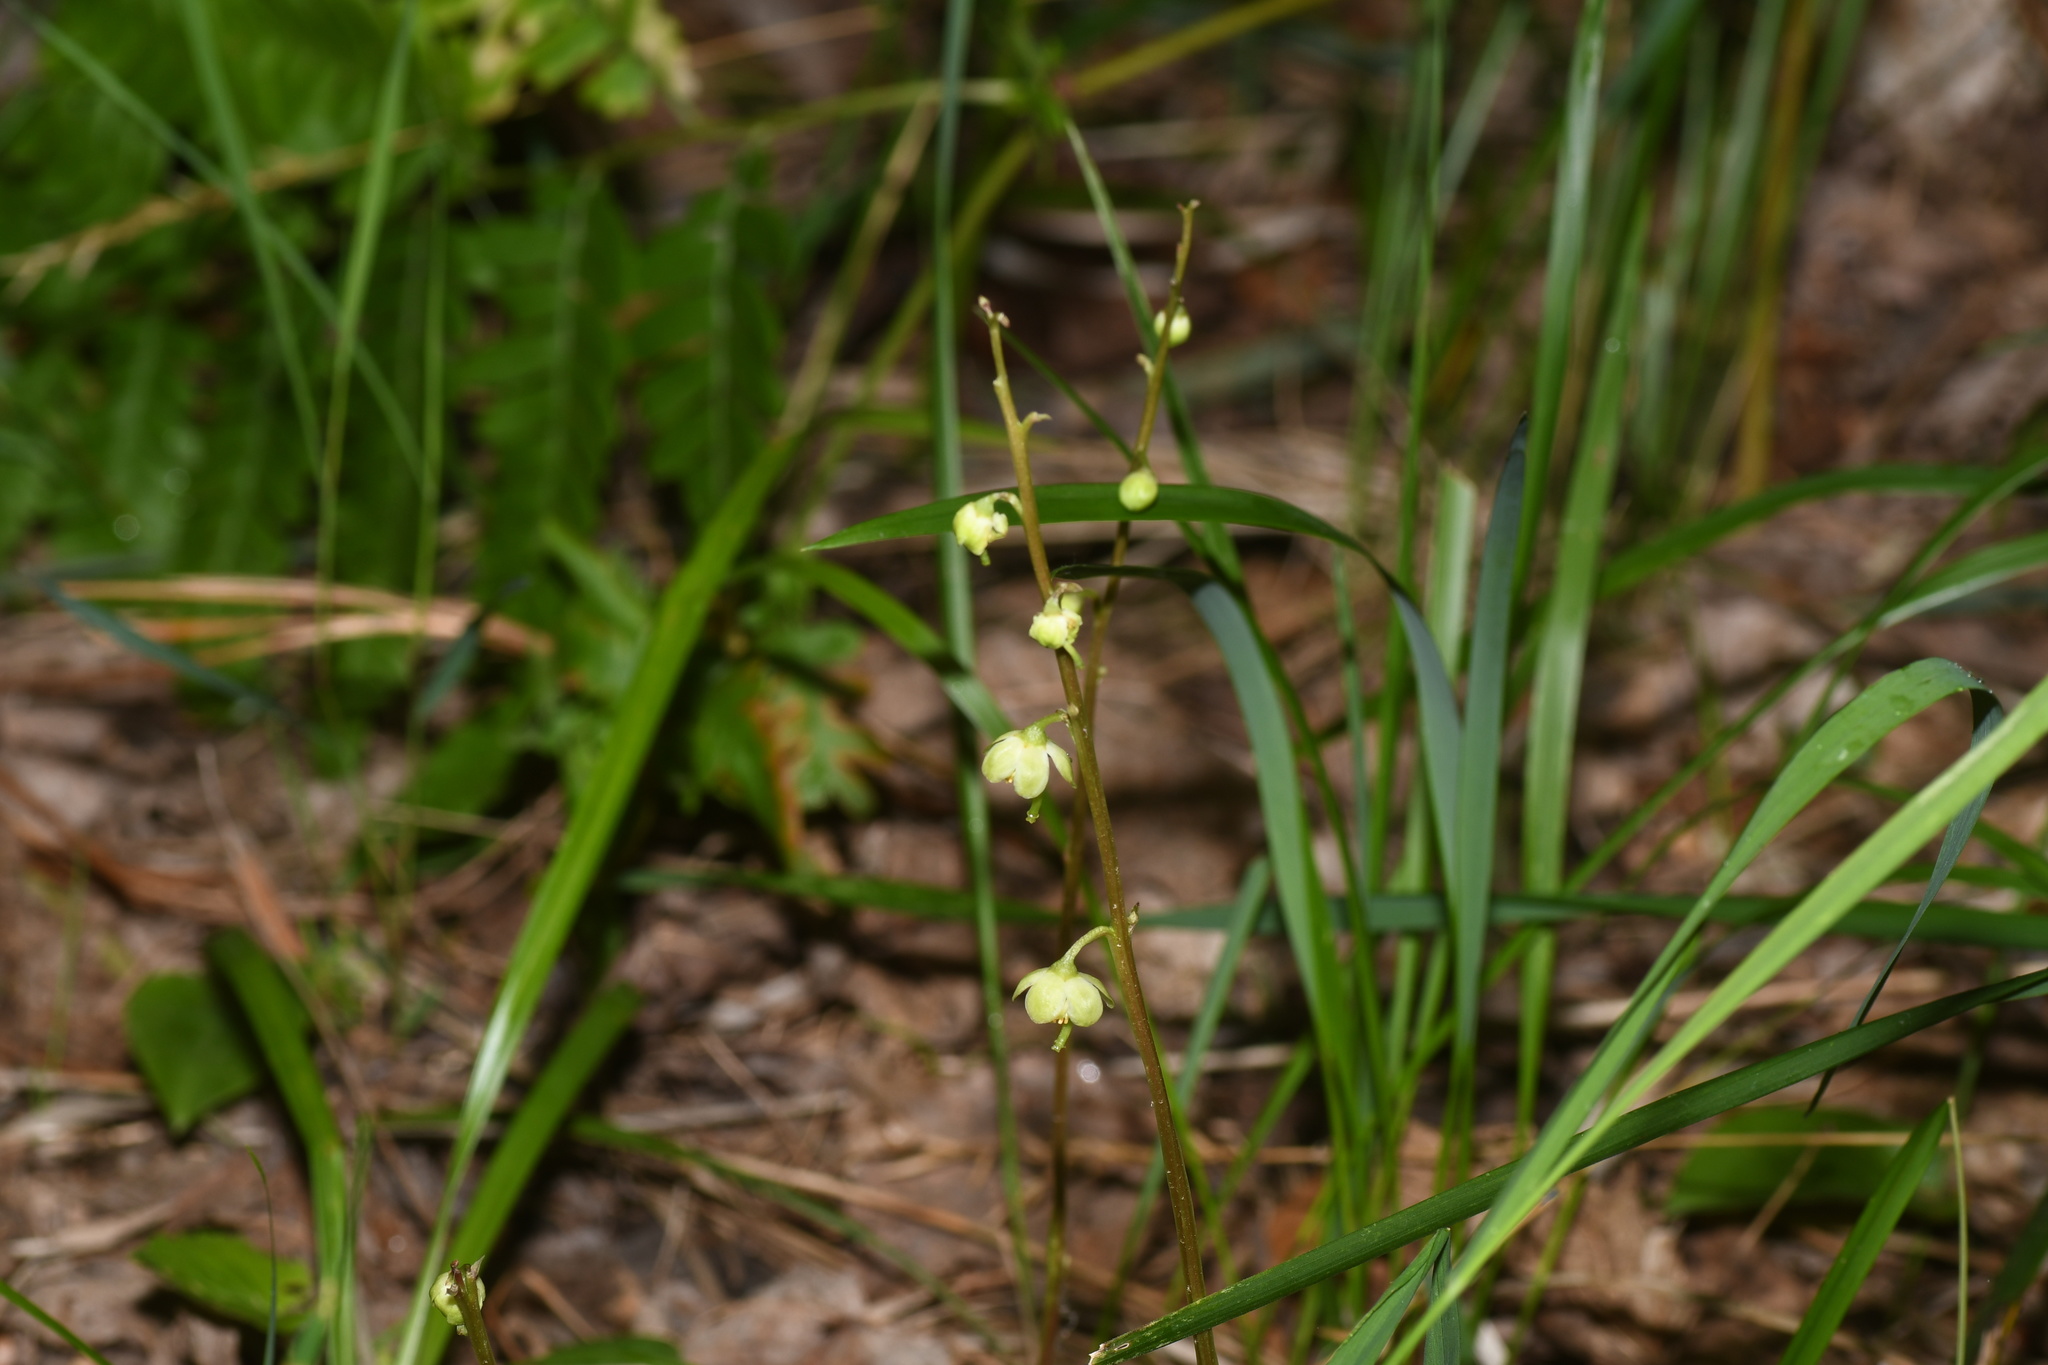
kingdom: Plantae
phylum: Tracheophyta
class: Magnoliopsida
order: Ericales
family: Ericaceae
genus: Pyrola
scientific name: Pyrola chlorantha
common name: Green wintergreen
